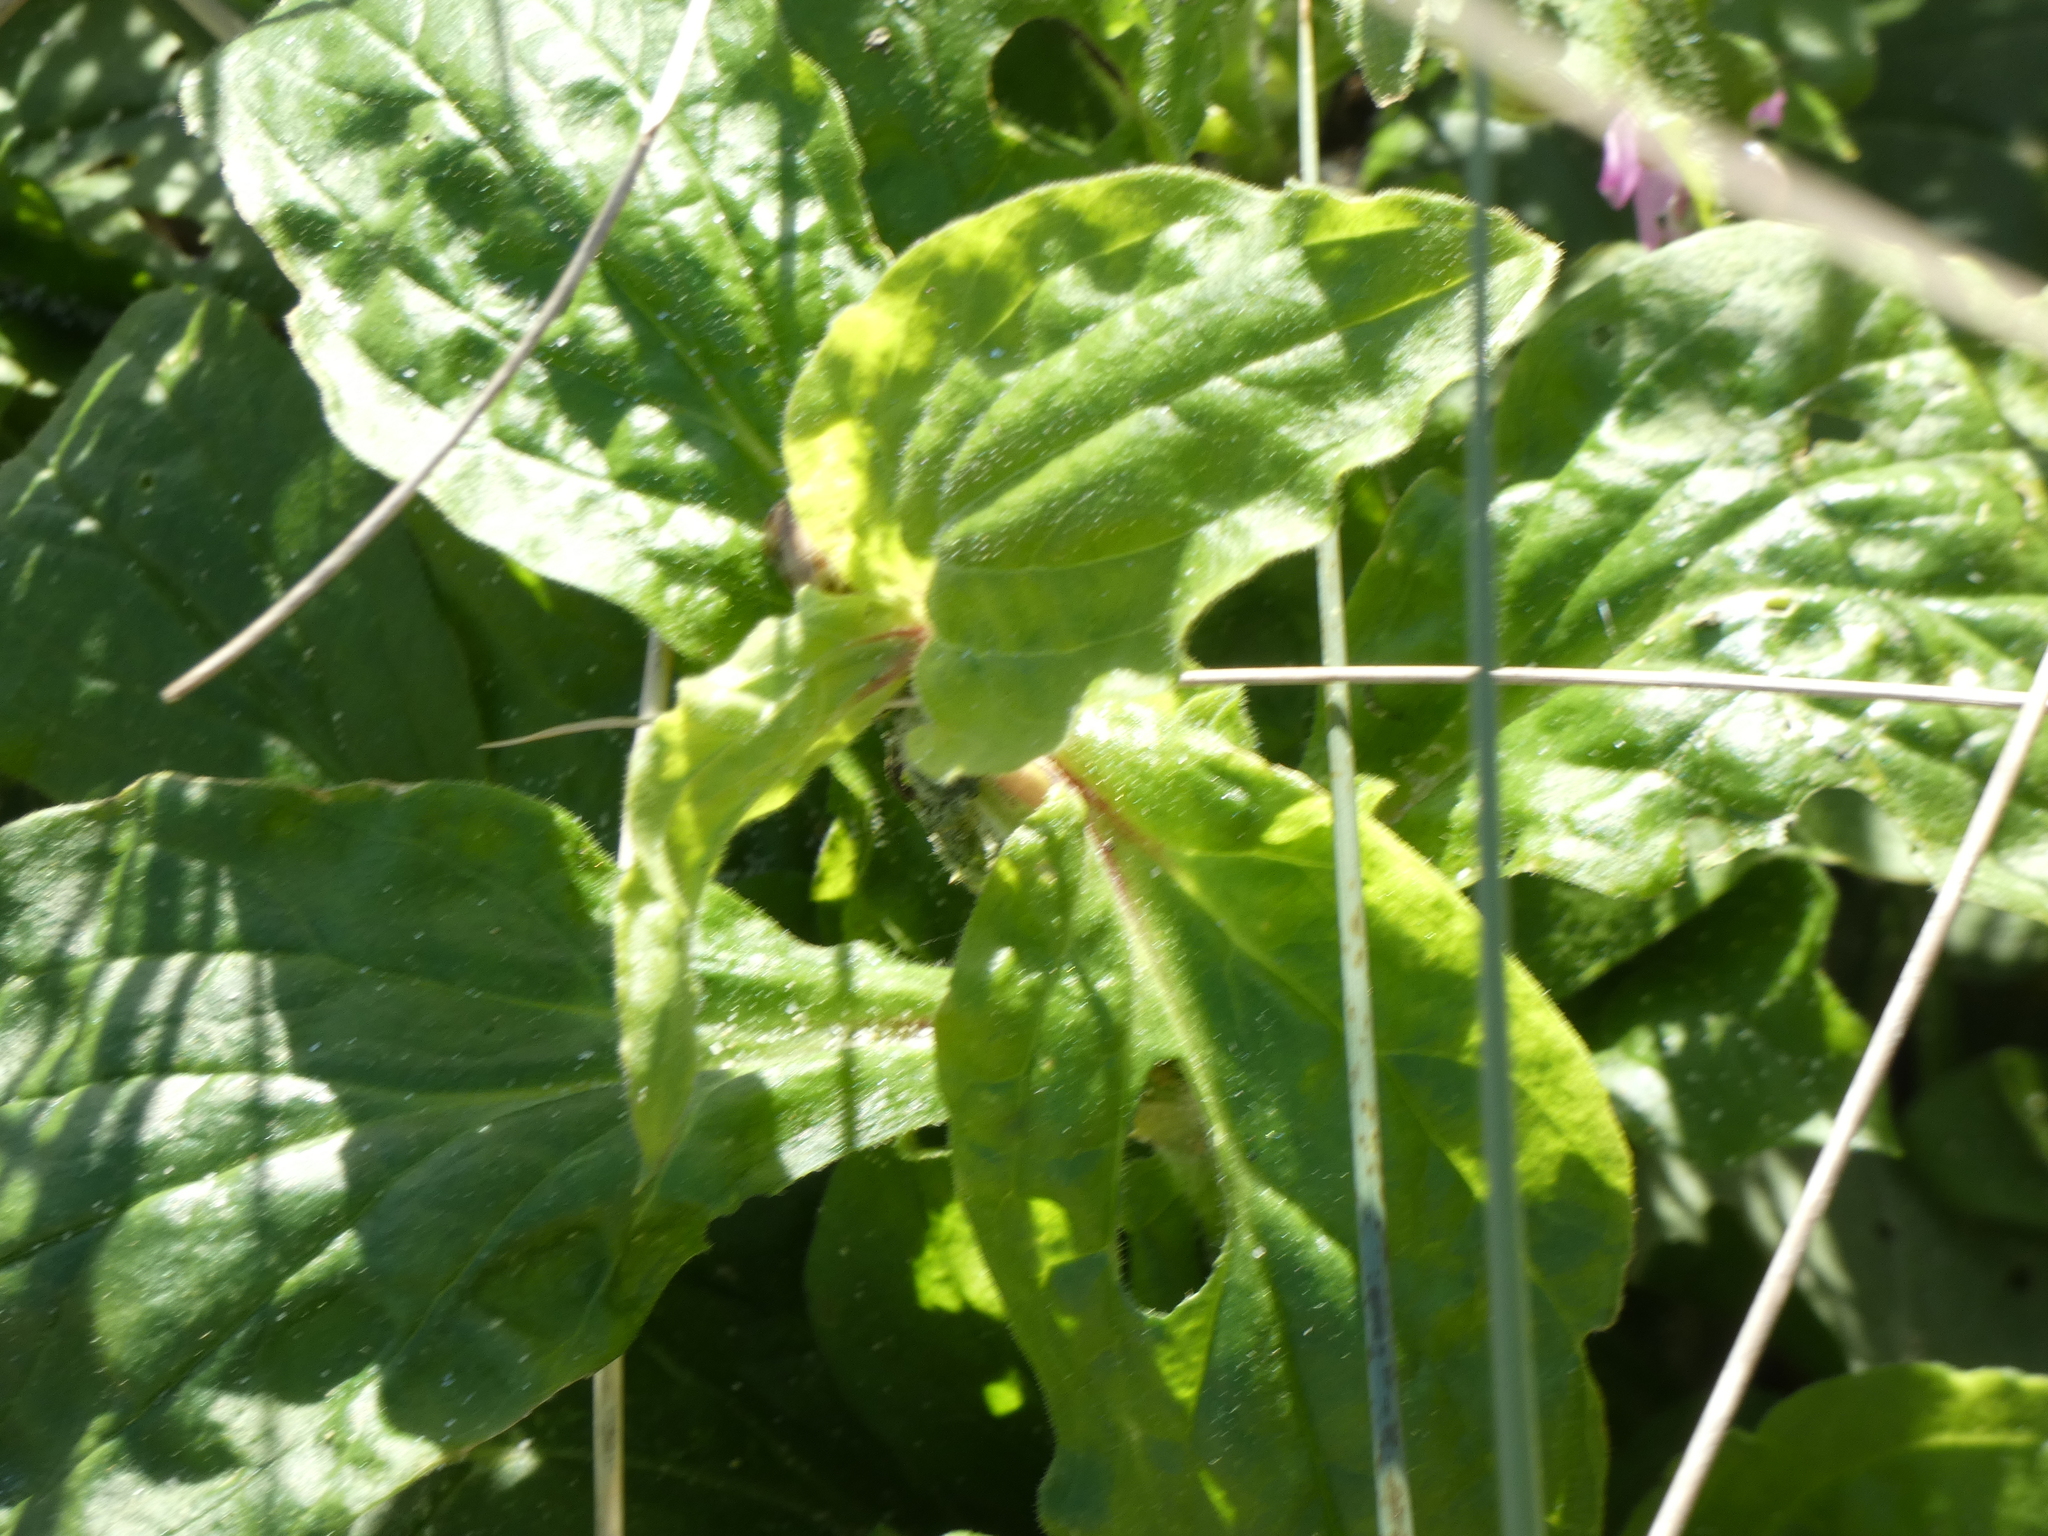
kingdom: Plantae
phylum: Tracheophyta
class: Magnoliopsida
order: Caryophyllales
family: Caryophyllaceae
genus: Silene
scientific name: Silene dioica
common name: Red campion
